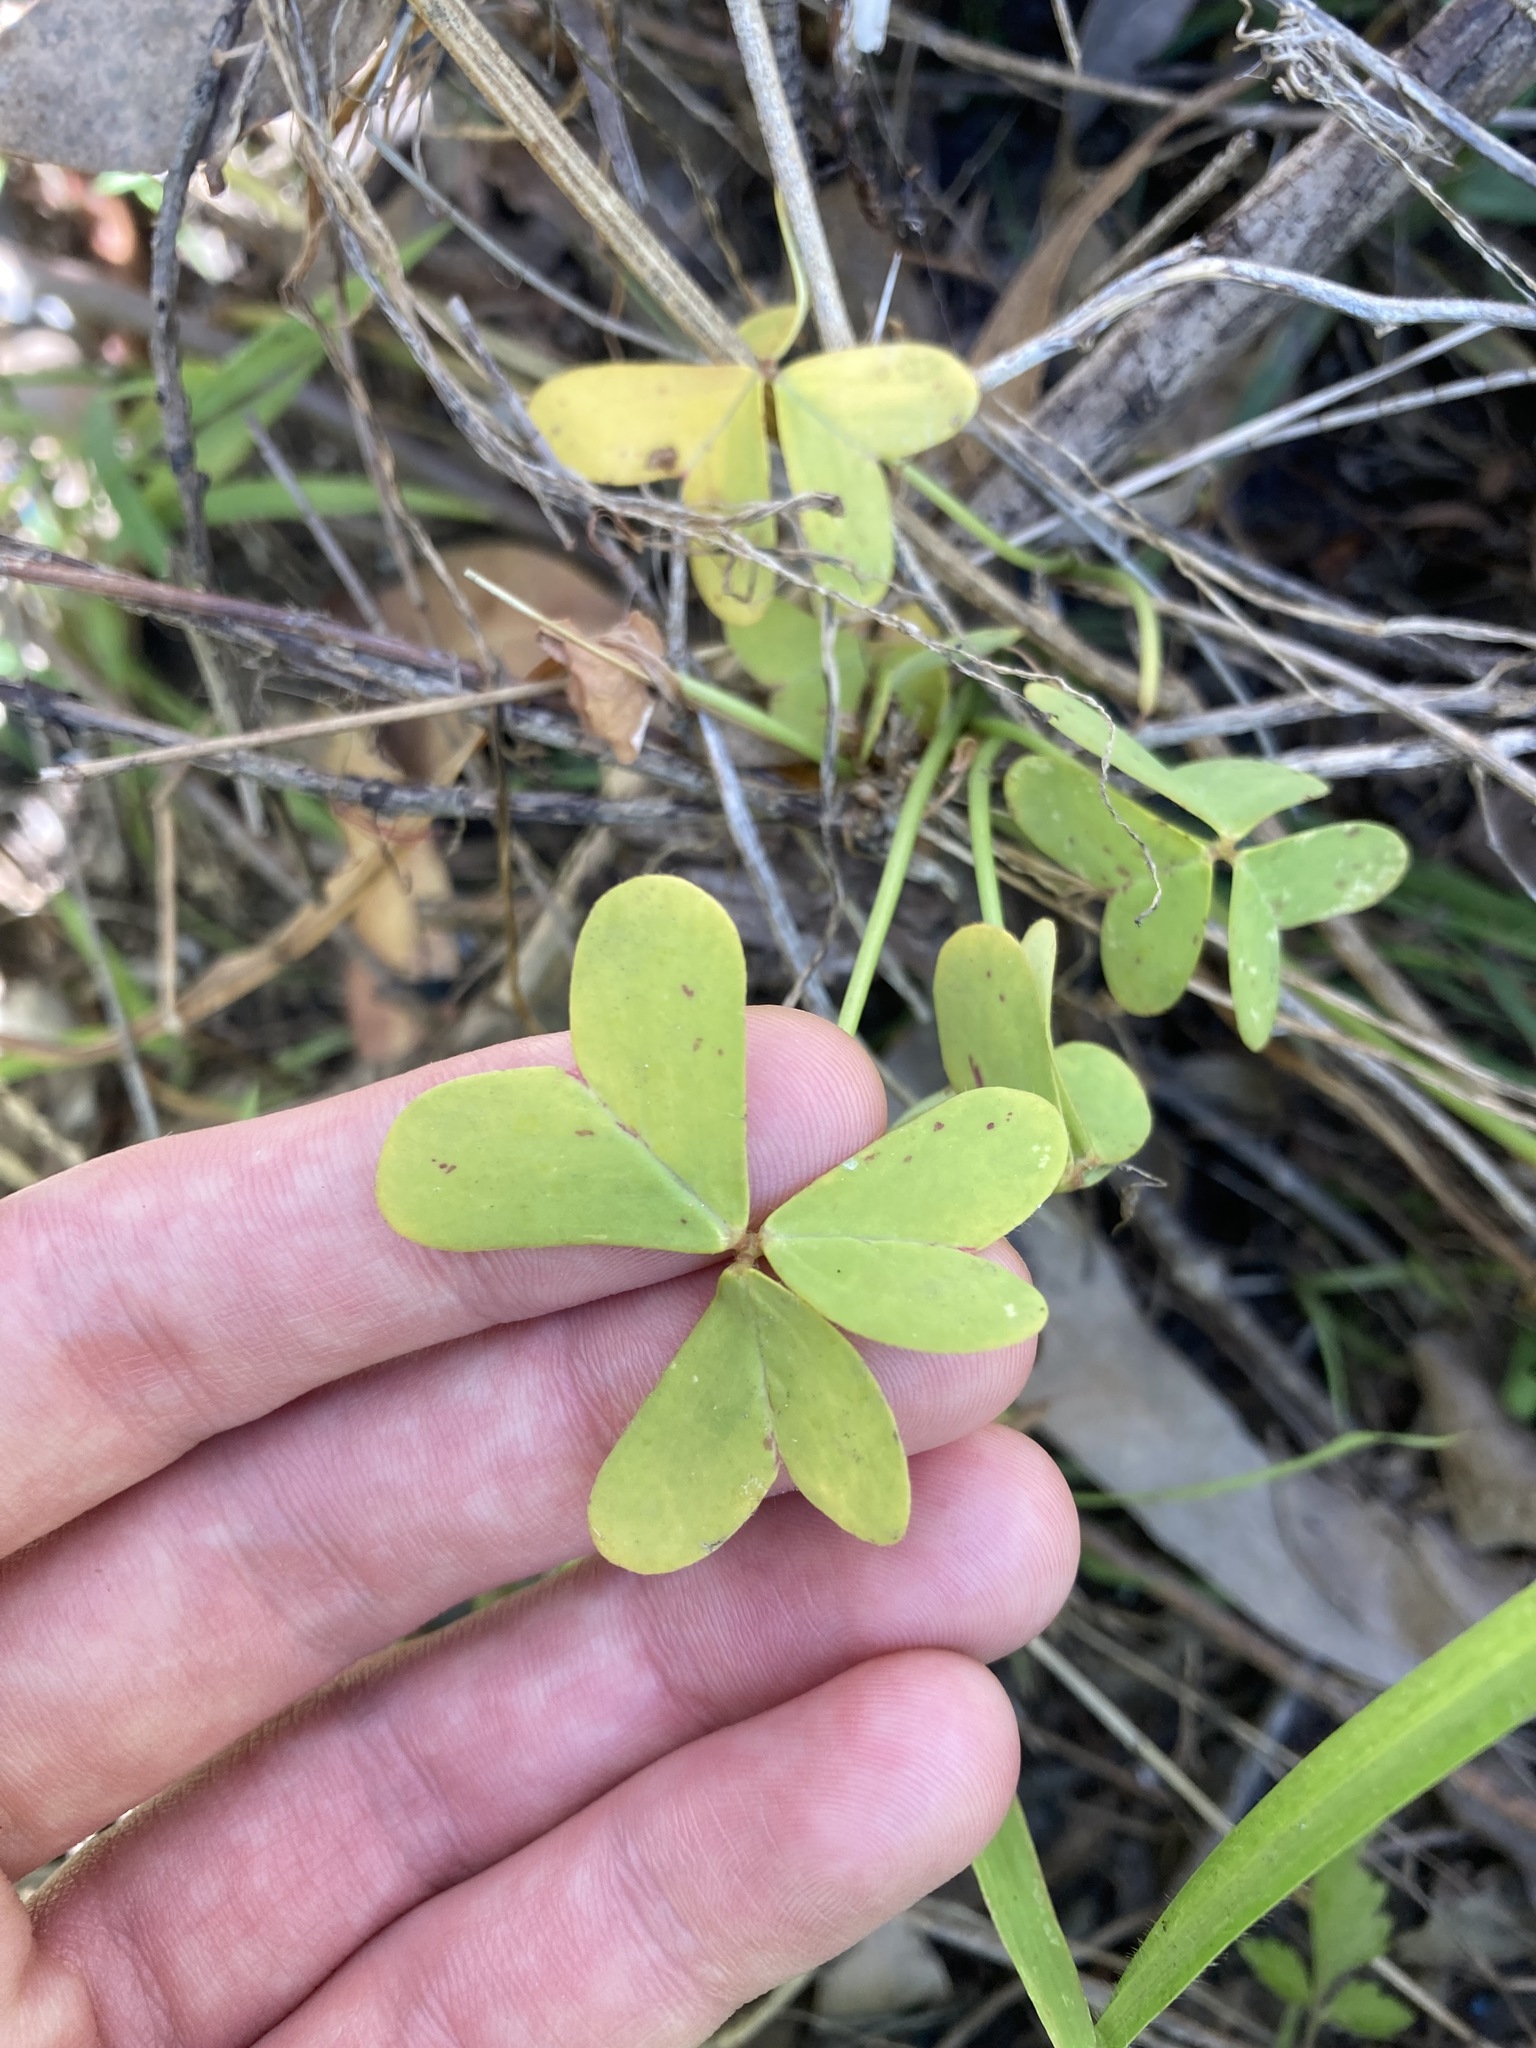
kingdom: Plantae
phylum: Tracheophyta
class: Magnoliopsida
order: Oxalidales
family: Oxalidaceae
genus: Oxalis
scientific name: Oxalis pes-caprae
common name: Bermuda-buttercup
